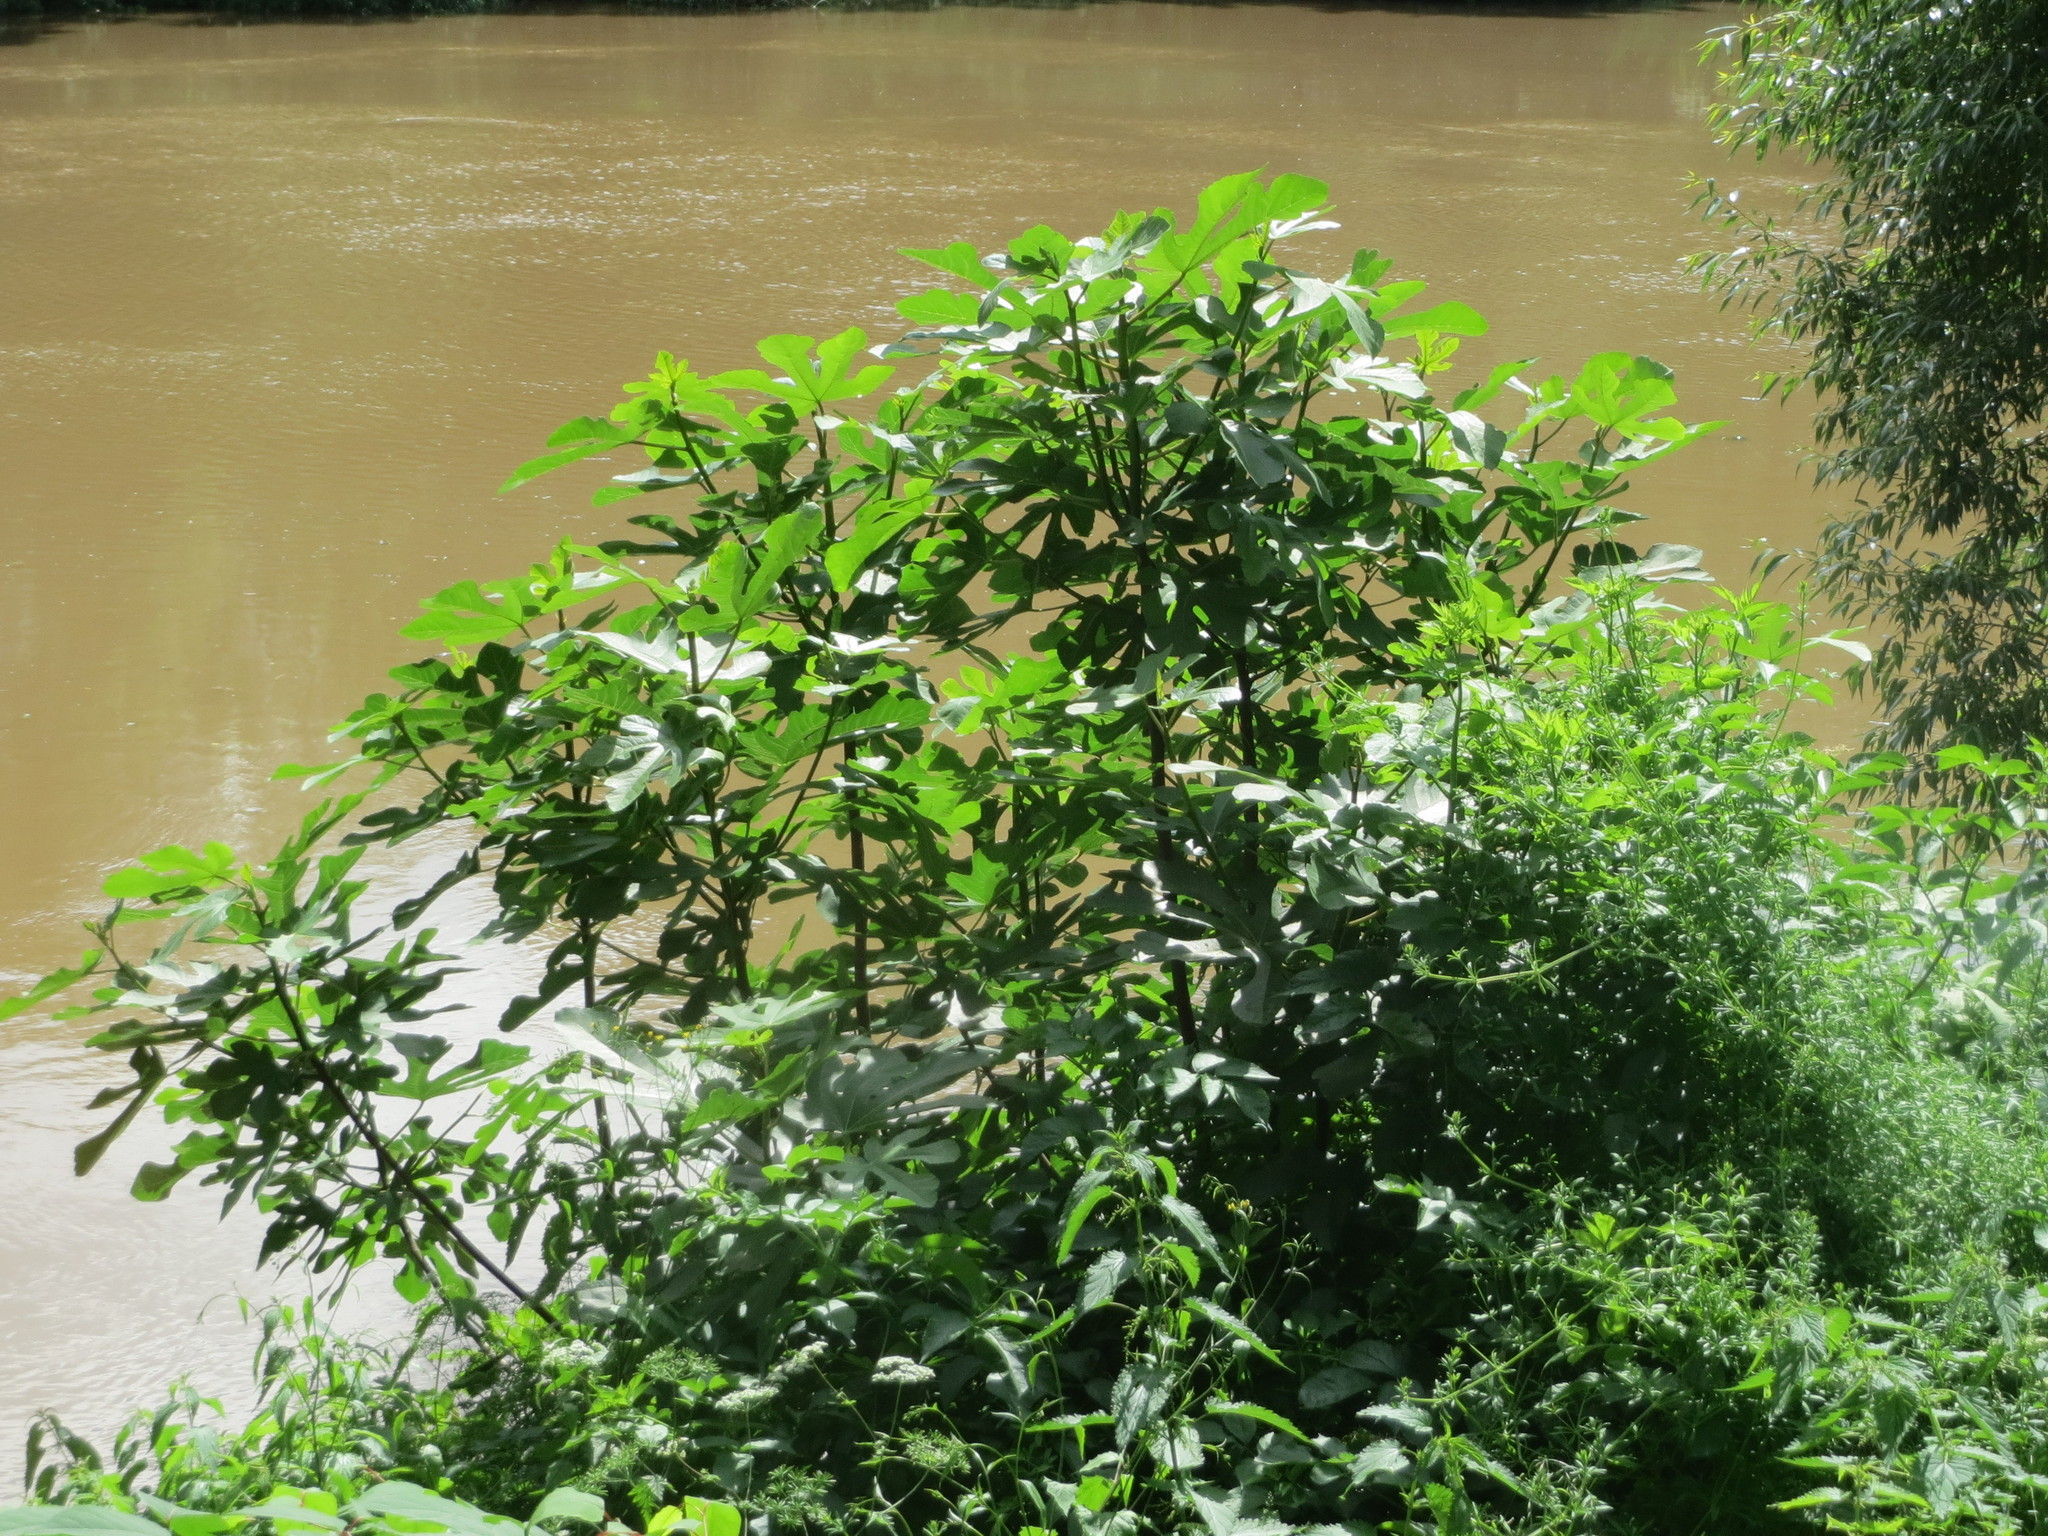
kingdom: Plantae
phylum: Tracheophyta
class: Magnoliopsida
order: Rosales
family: Moraceae
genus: Ficus
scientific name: Ficus carica
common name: Fig
